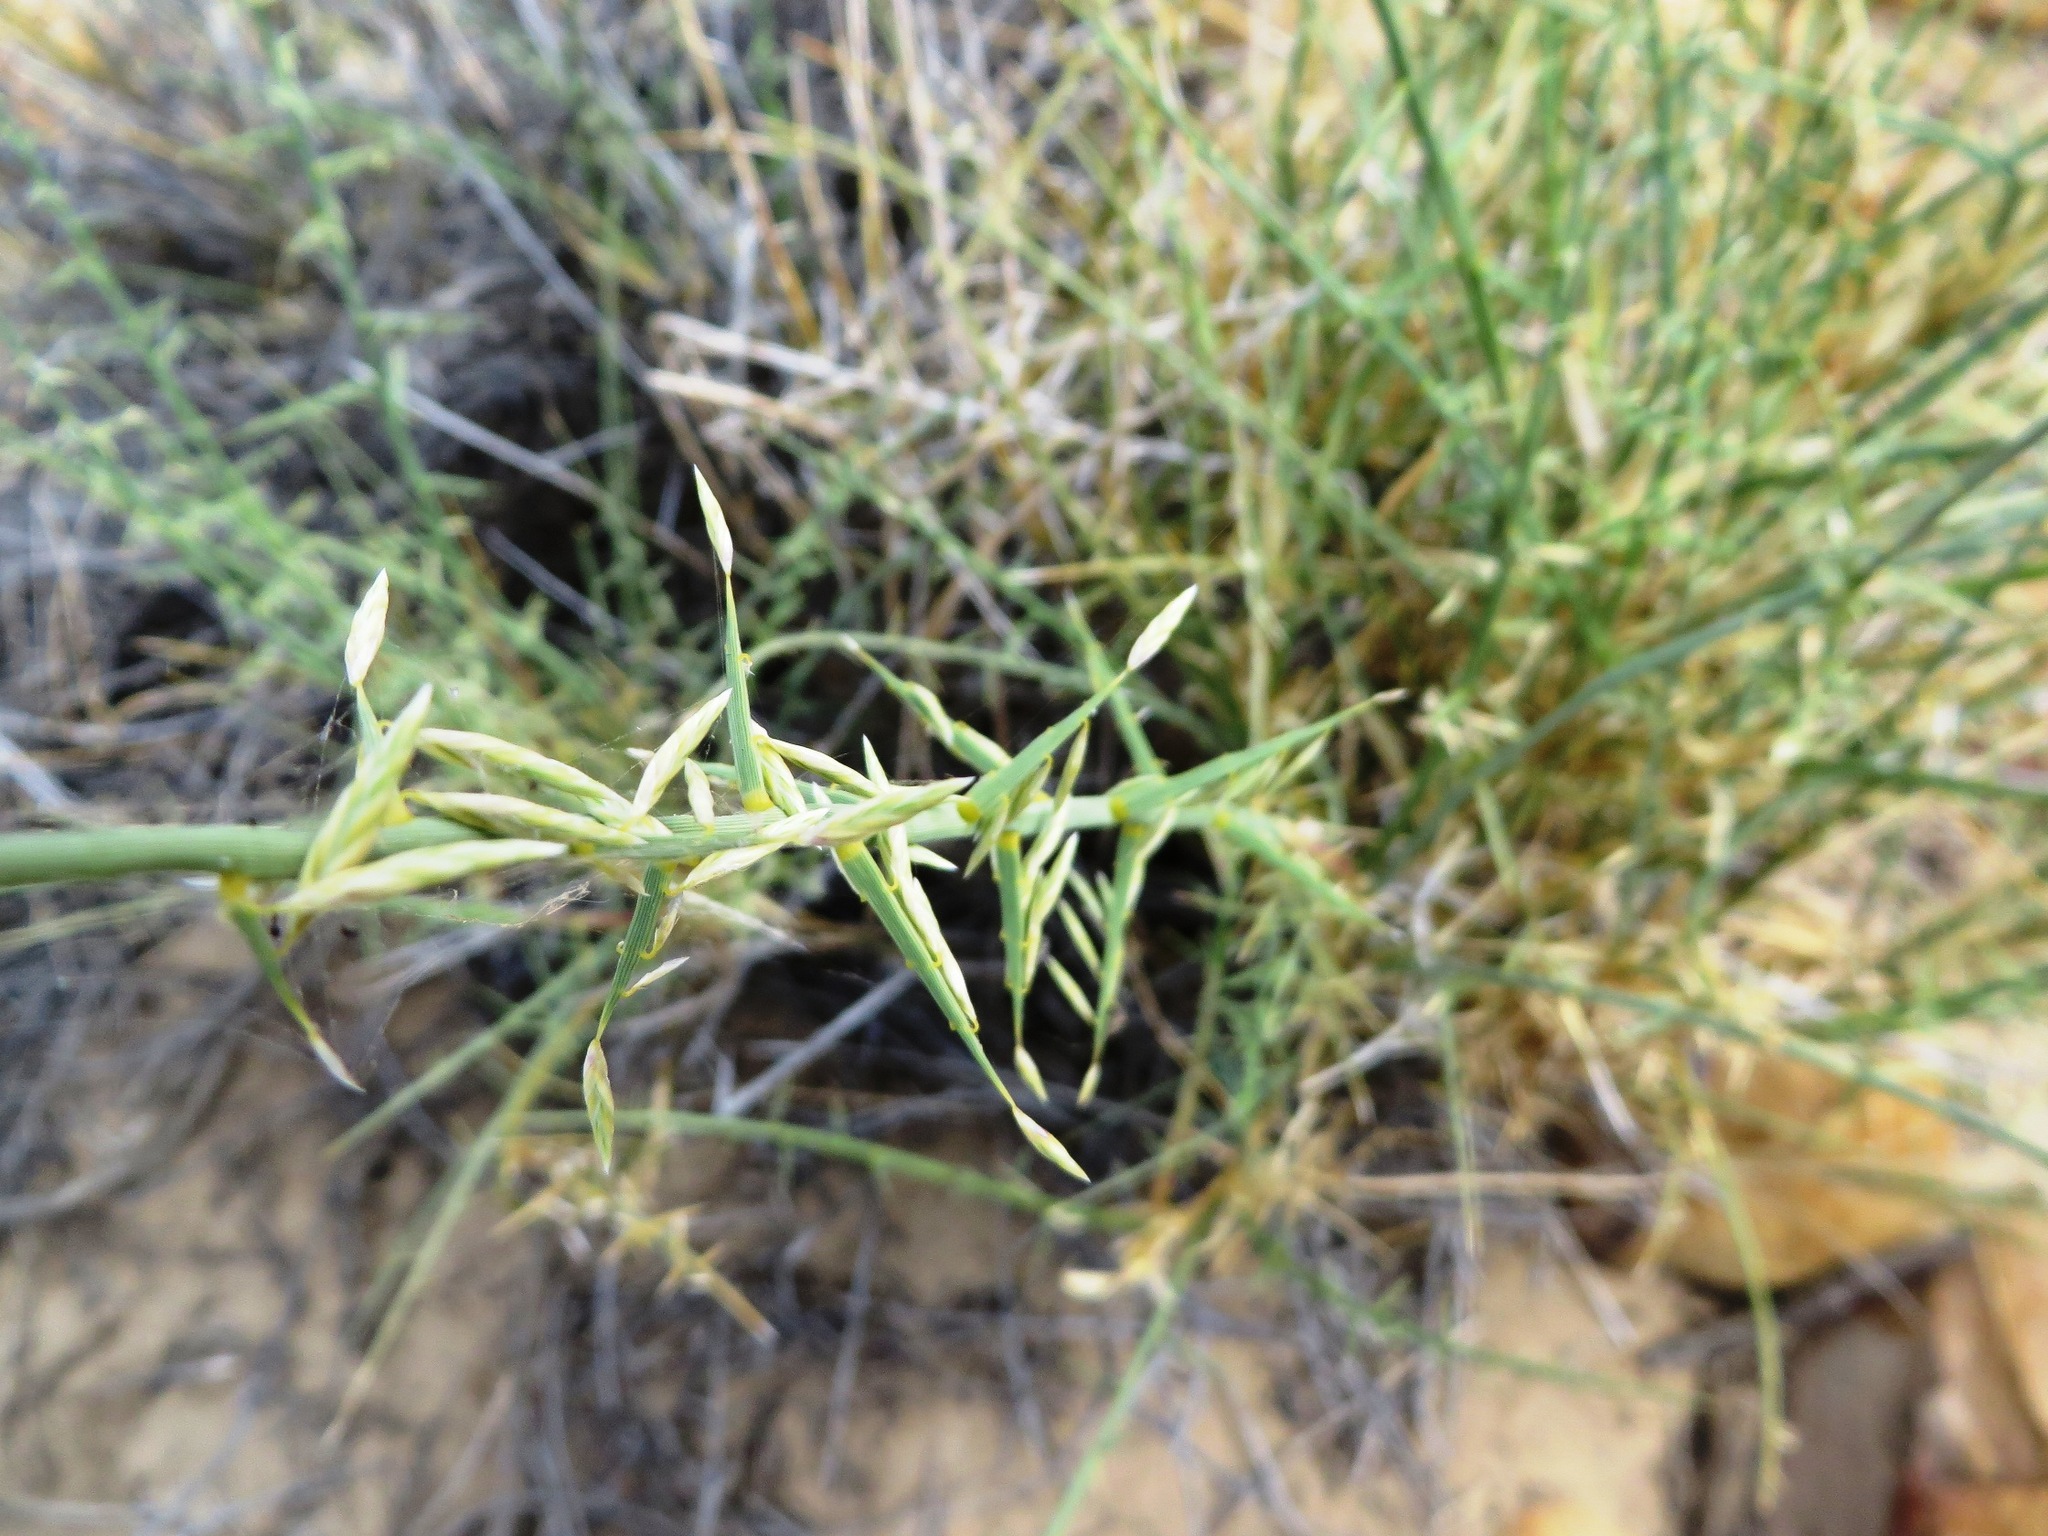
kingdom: Plantae
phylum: Tracheophyta
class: Liliopsida
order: Poales
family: Poaceae
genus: Cladoraphis
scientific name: Cladoraphis spinosa
